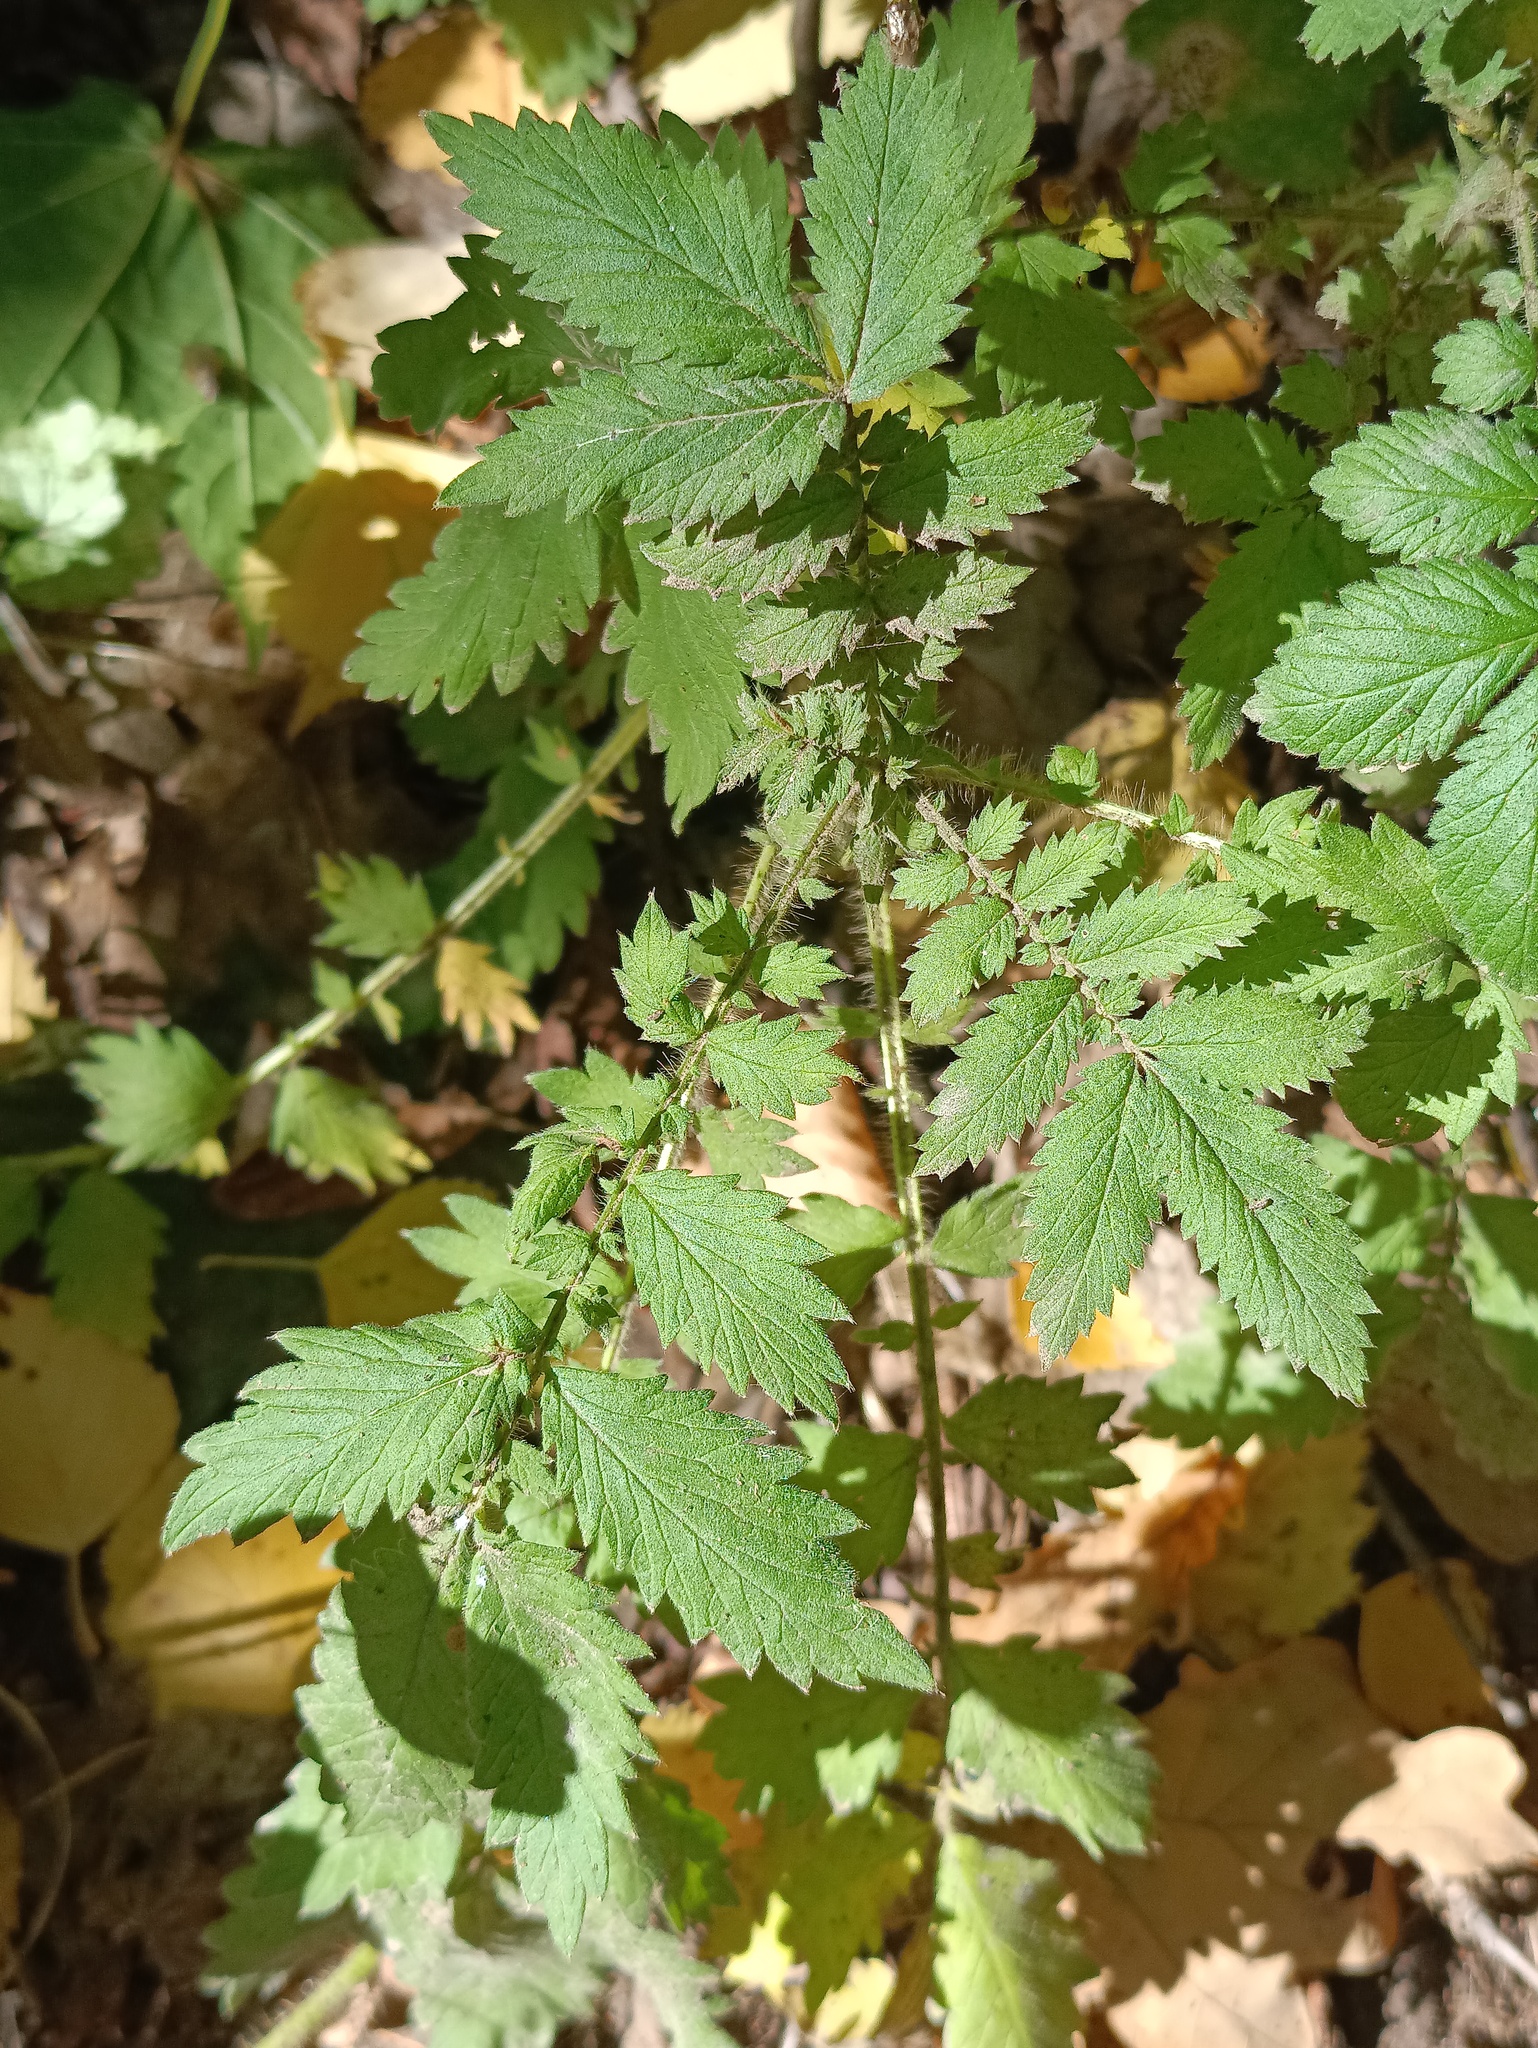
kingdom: Plantae
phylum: Tracheophyta
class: Magnoliopsida
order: Rosales
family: Rosaceae
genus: Agrimonia
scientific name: Agrimonia eupatoria
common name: Agrimony
